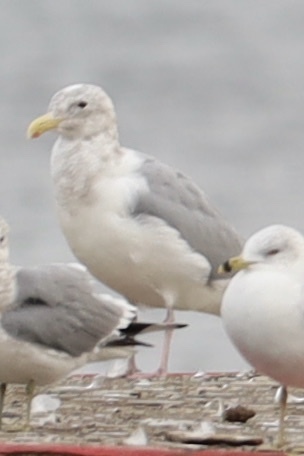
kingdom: Animalia
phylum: Chordata
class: Aves
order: Charadriiformes
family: Laridae
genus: Larus
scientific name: Larus
